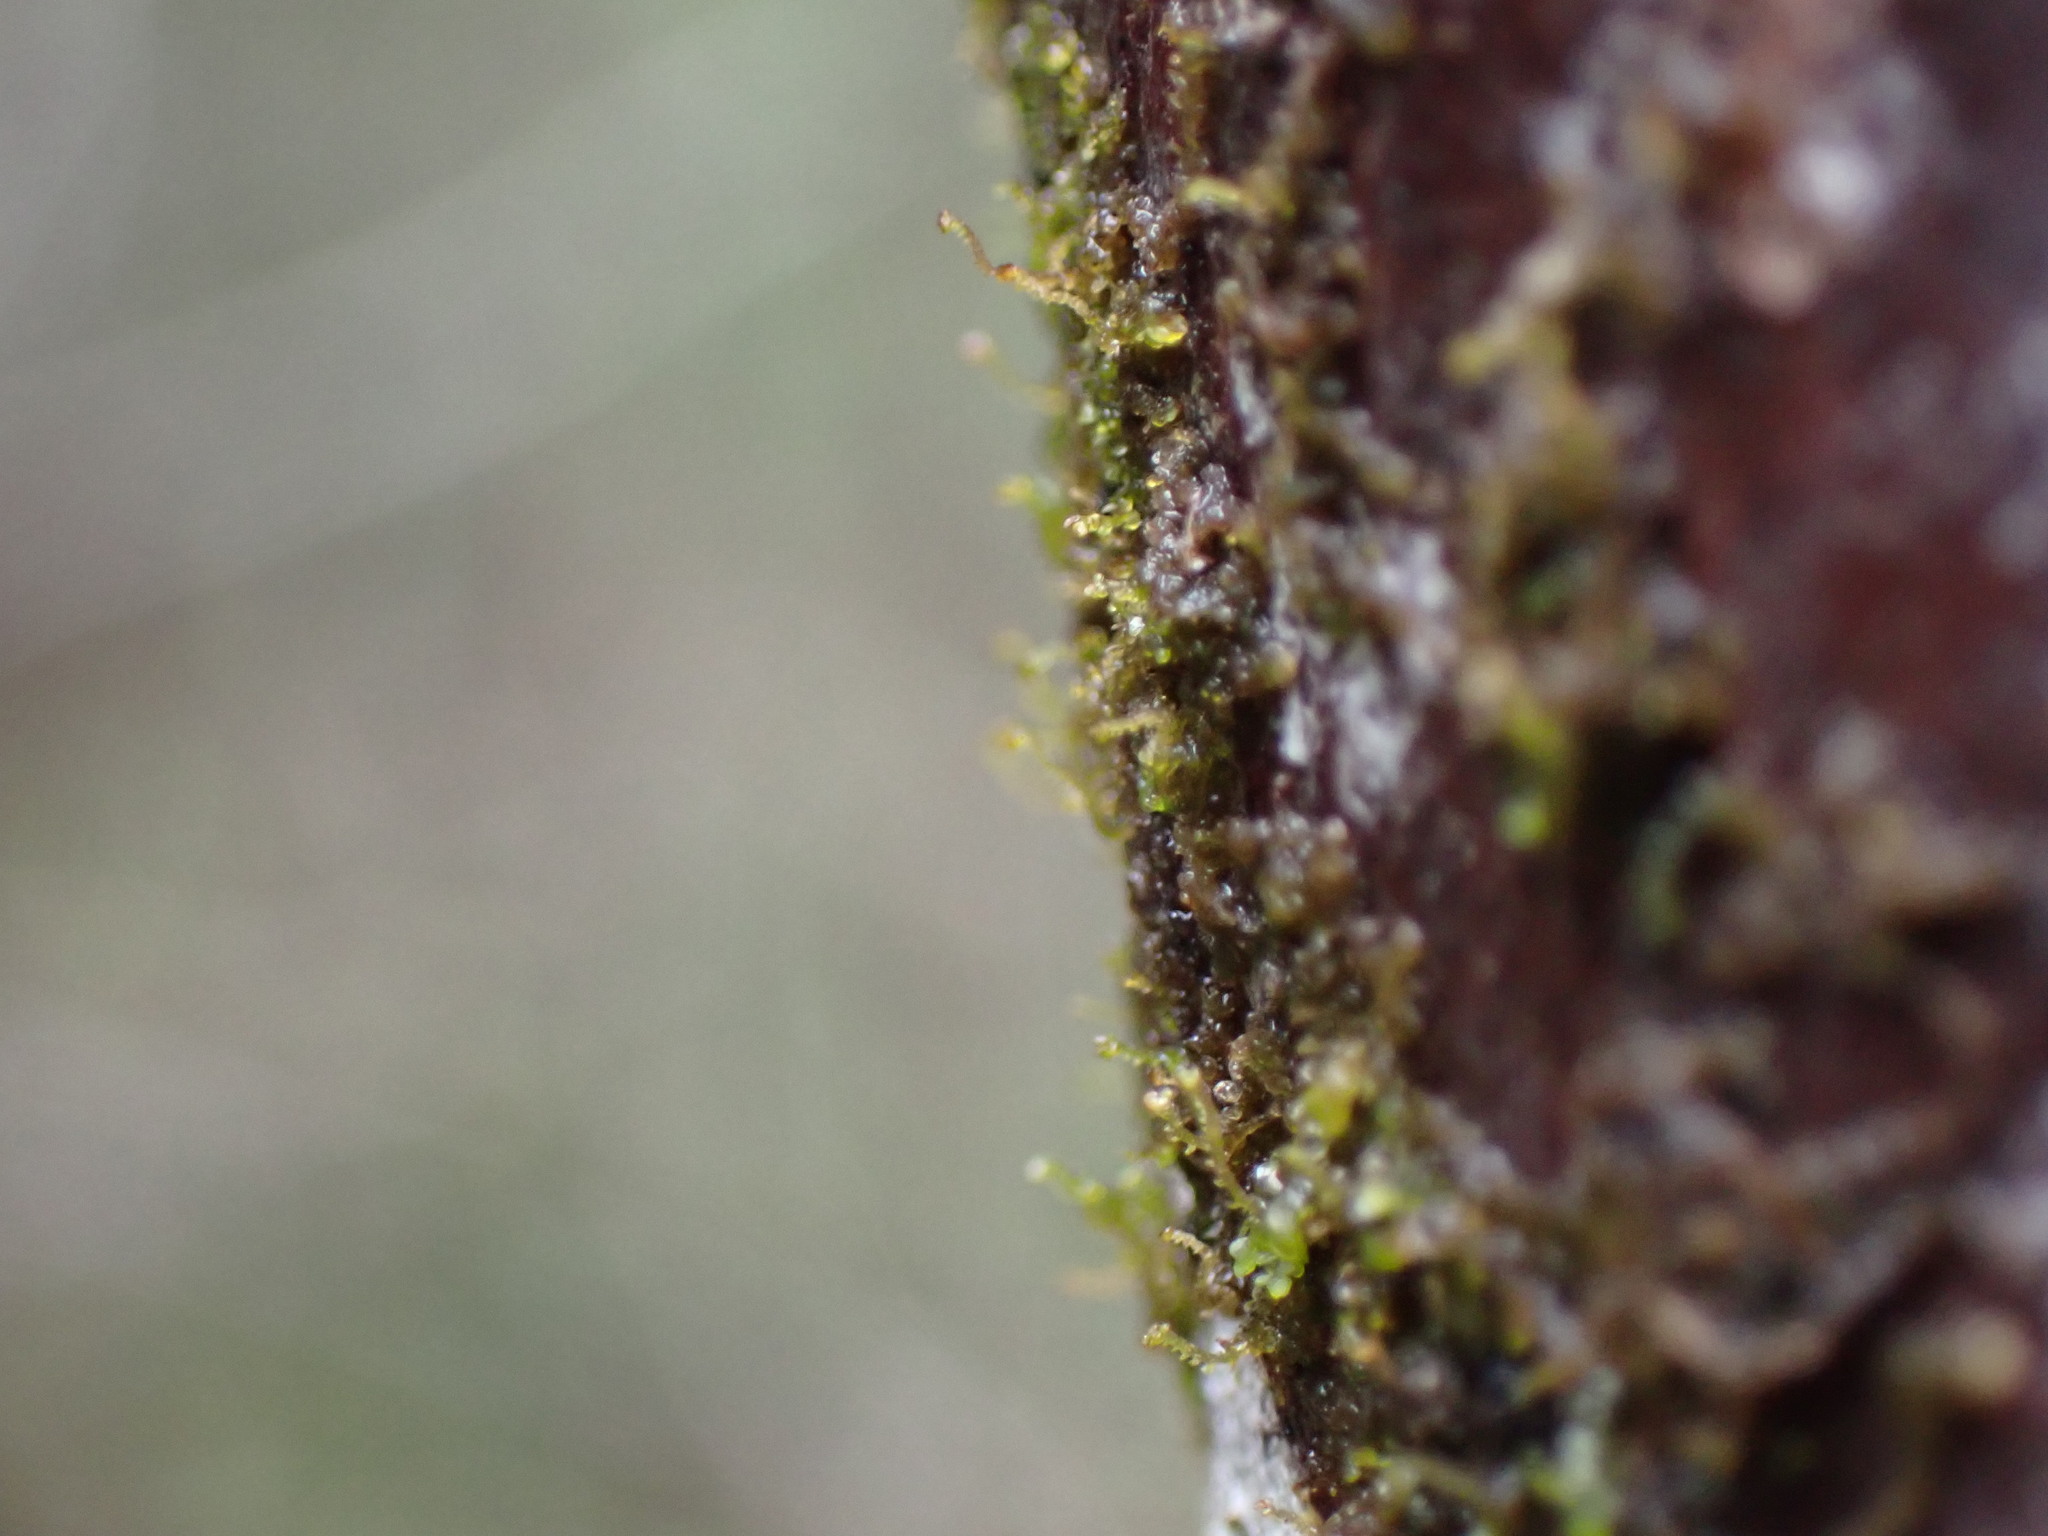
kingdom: Plantae
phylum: Marchantiophyta
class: Jungermanniopsida
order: Porellales
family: Frullaniaceae
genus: Frullania
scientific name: Frullania bolanderi
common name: Bolander s scalewort
